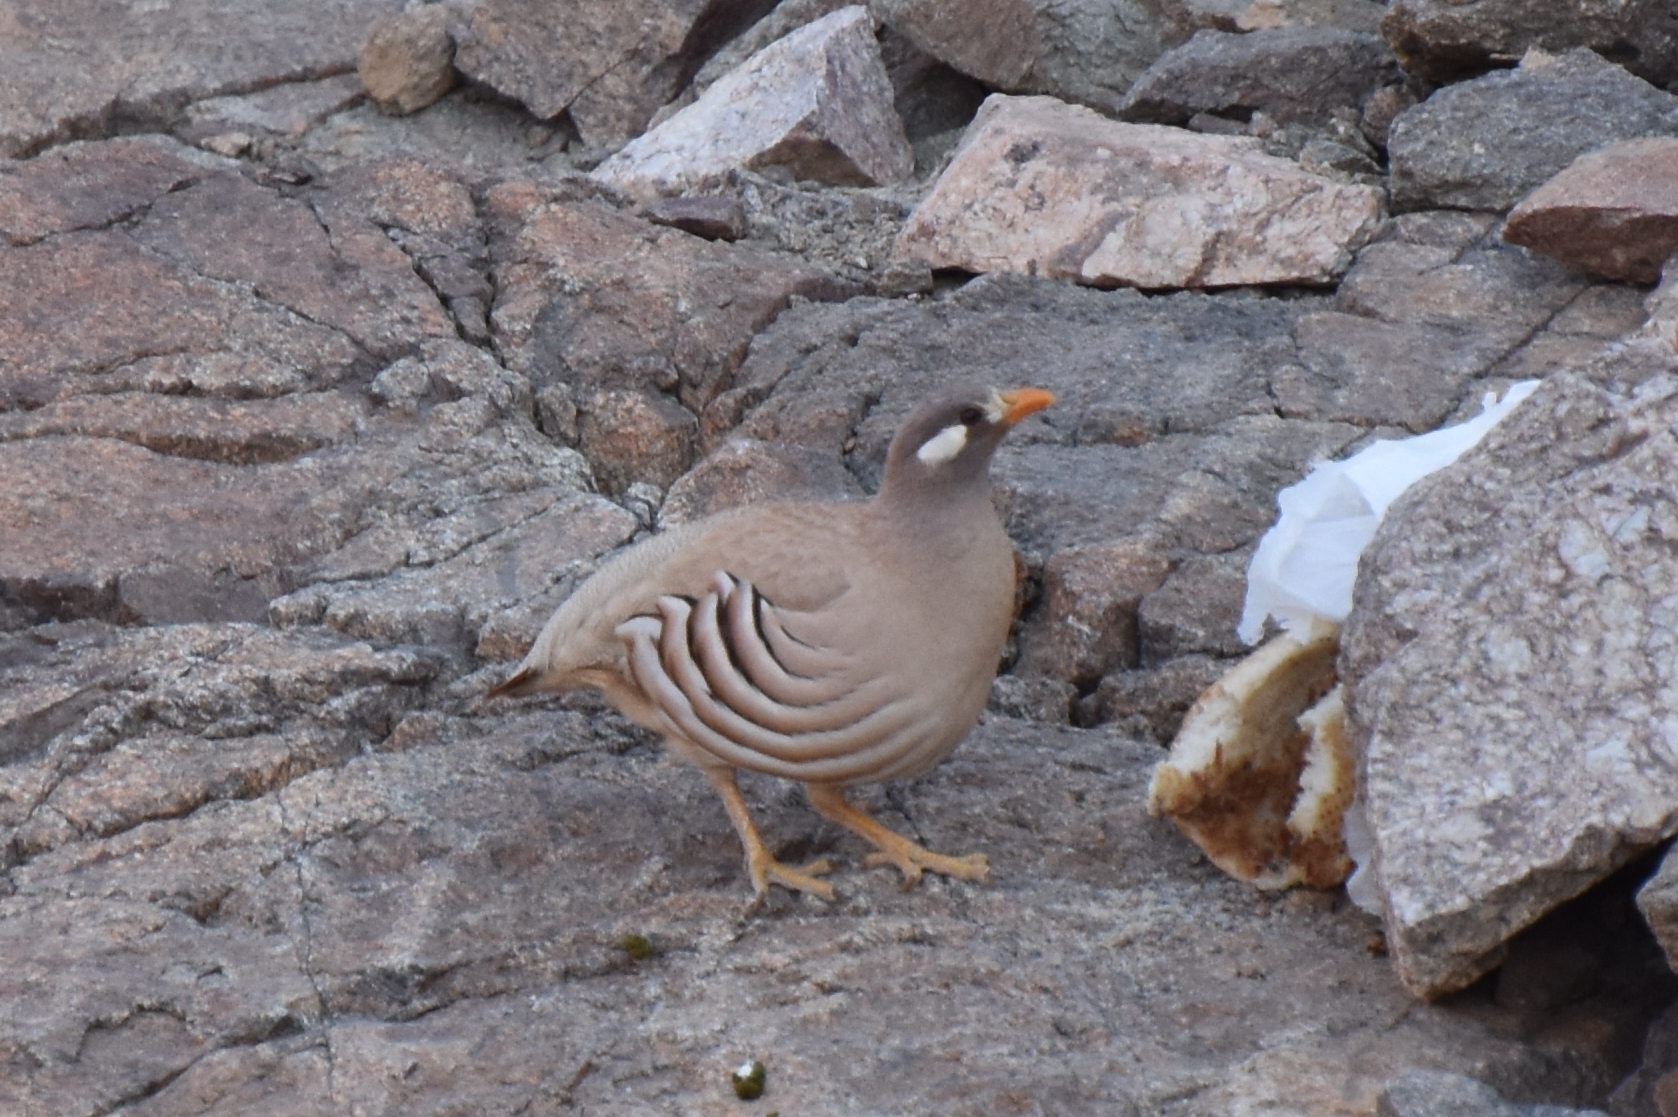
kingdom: Animalia
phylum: Chordata
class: Aves
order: Galliformes
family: Phasianidae
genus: Ammoperdix
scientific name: Ammoperdix heyi
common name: Sand partridge
